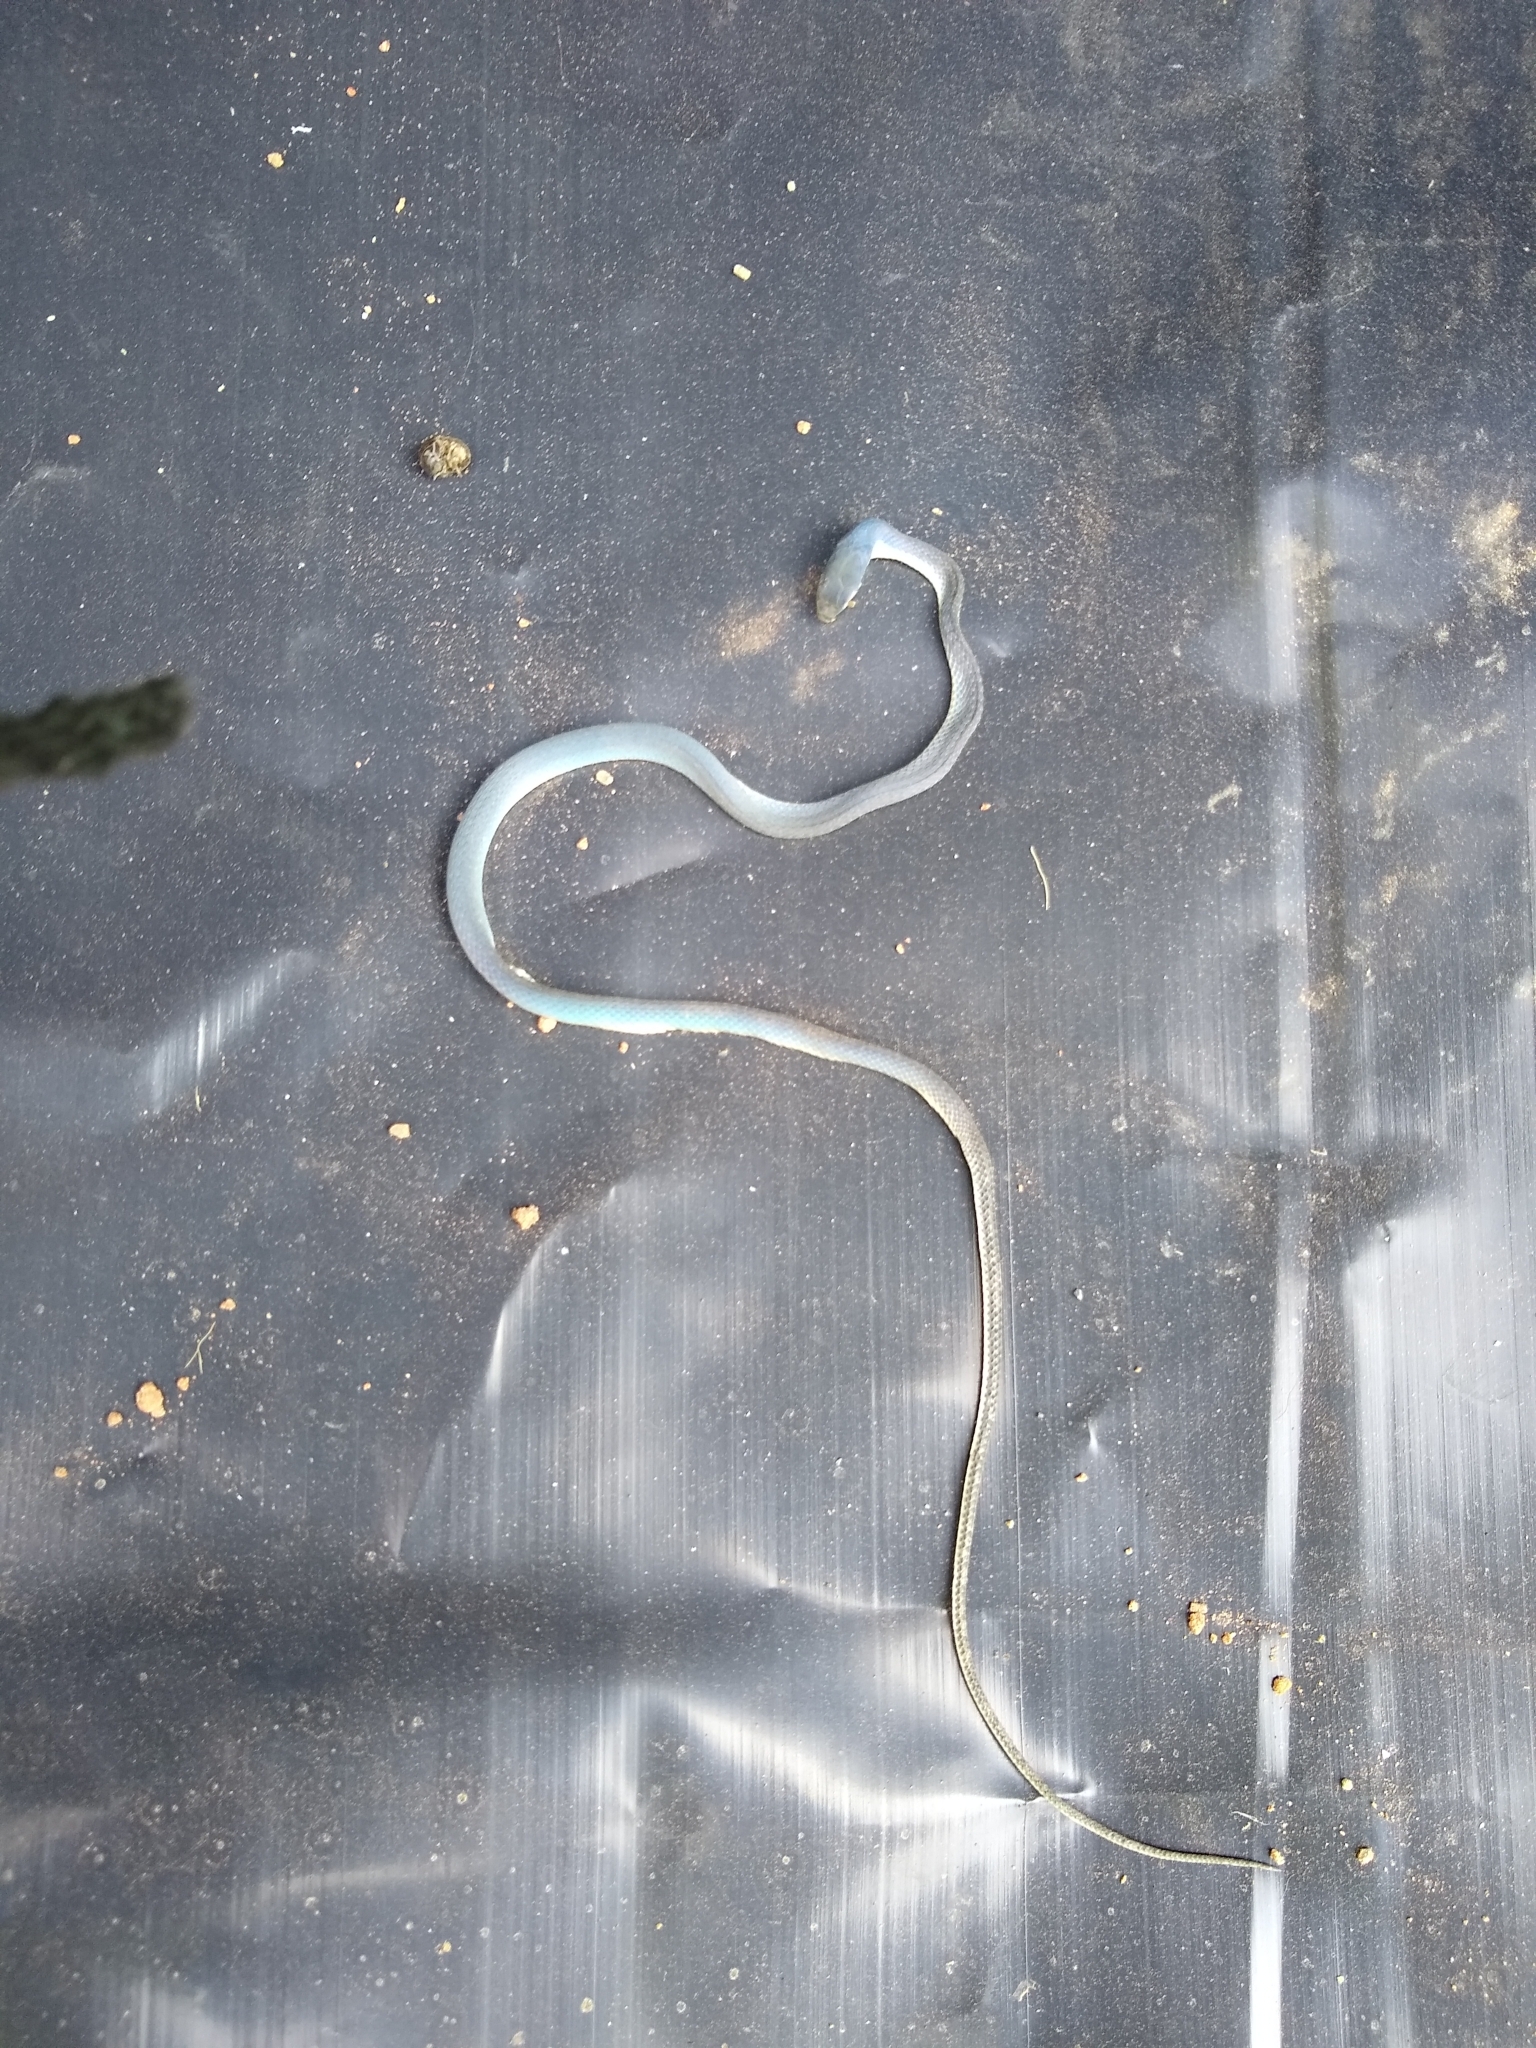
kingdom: Animalia
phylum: Chordata
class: Squamata
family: Colubridae
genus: Opheodrys
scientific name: Opheodrys aestivus
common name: Rough greensnake
